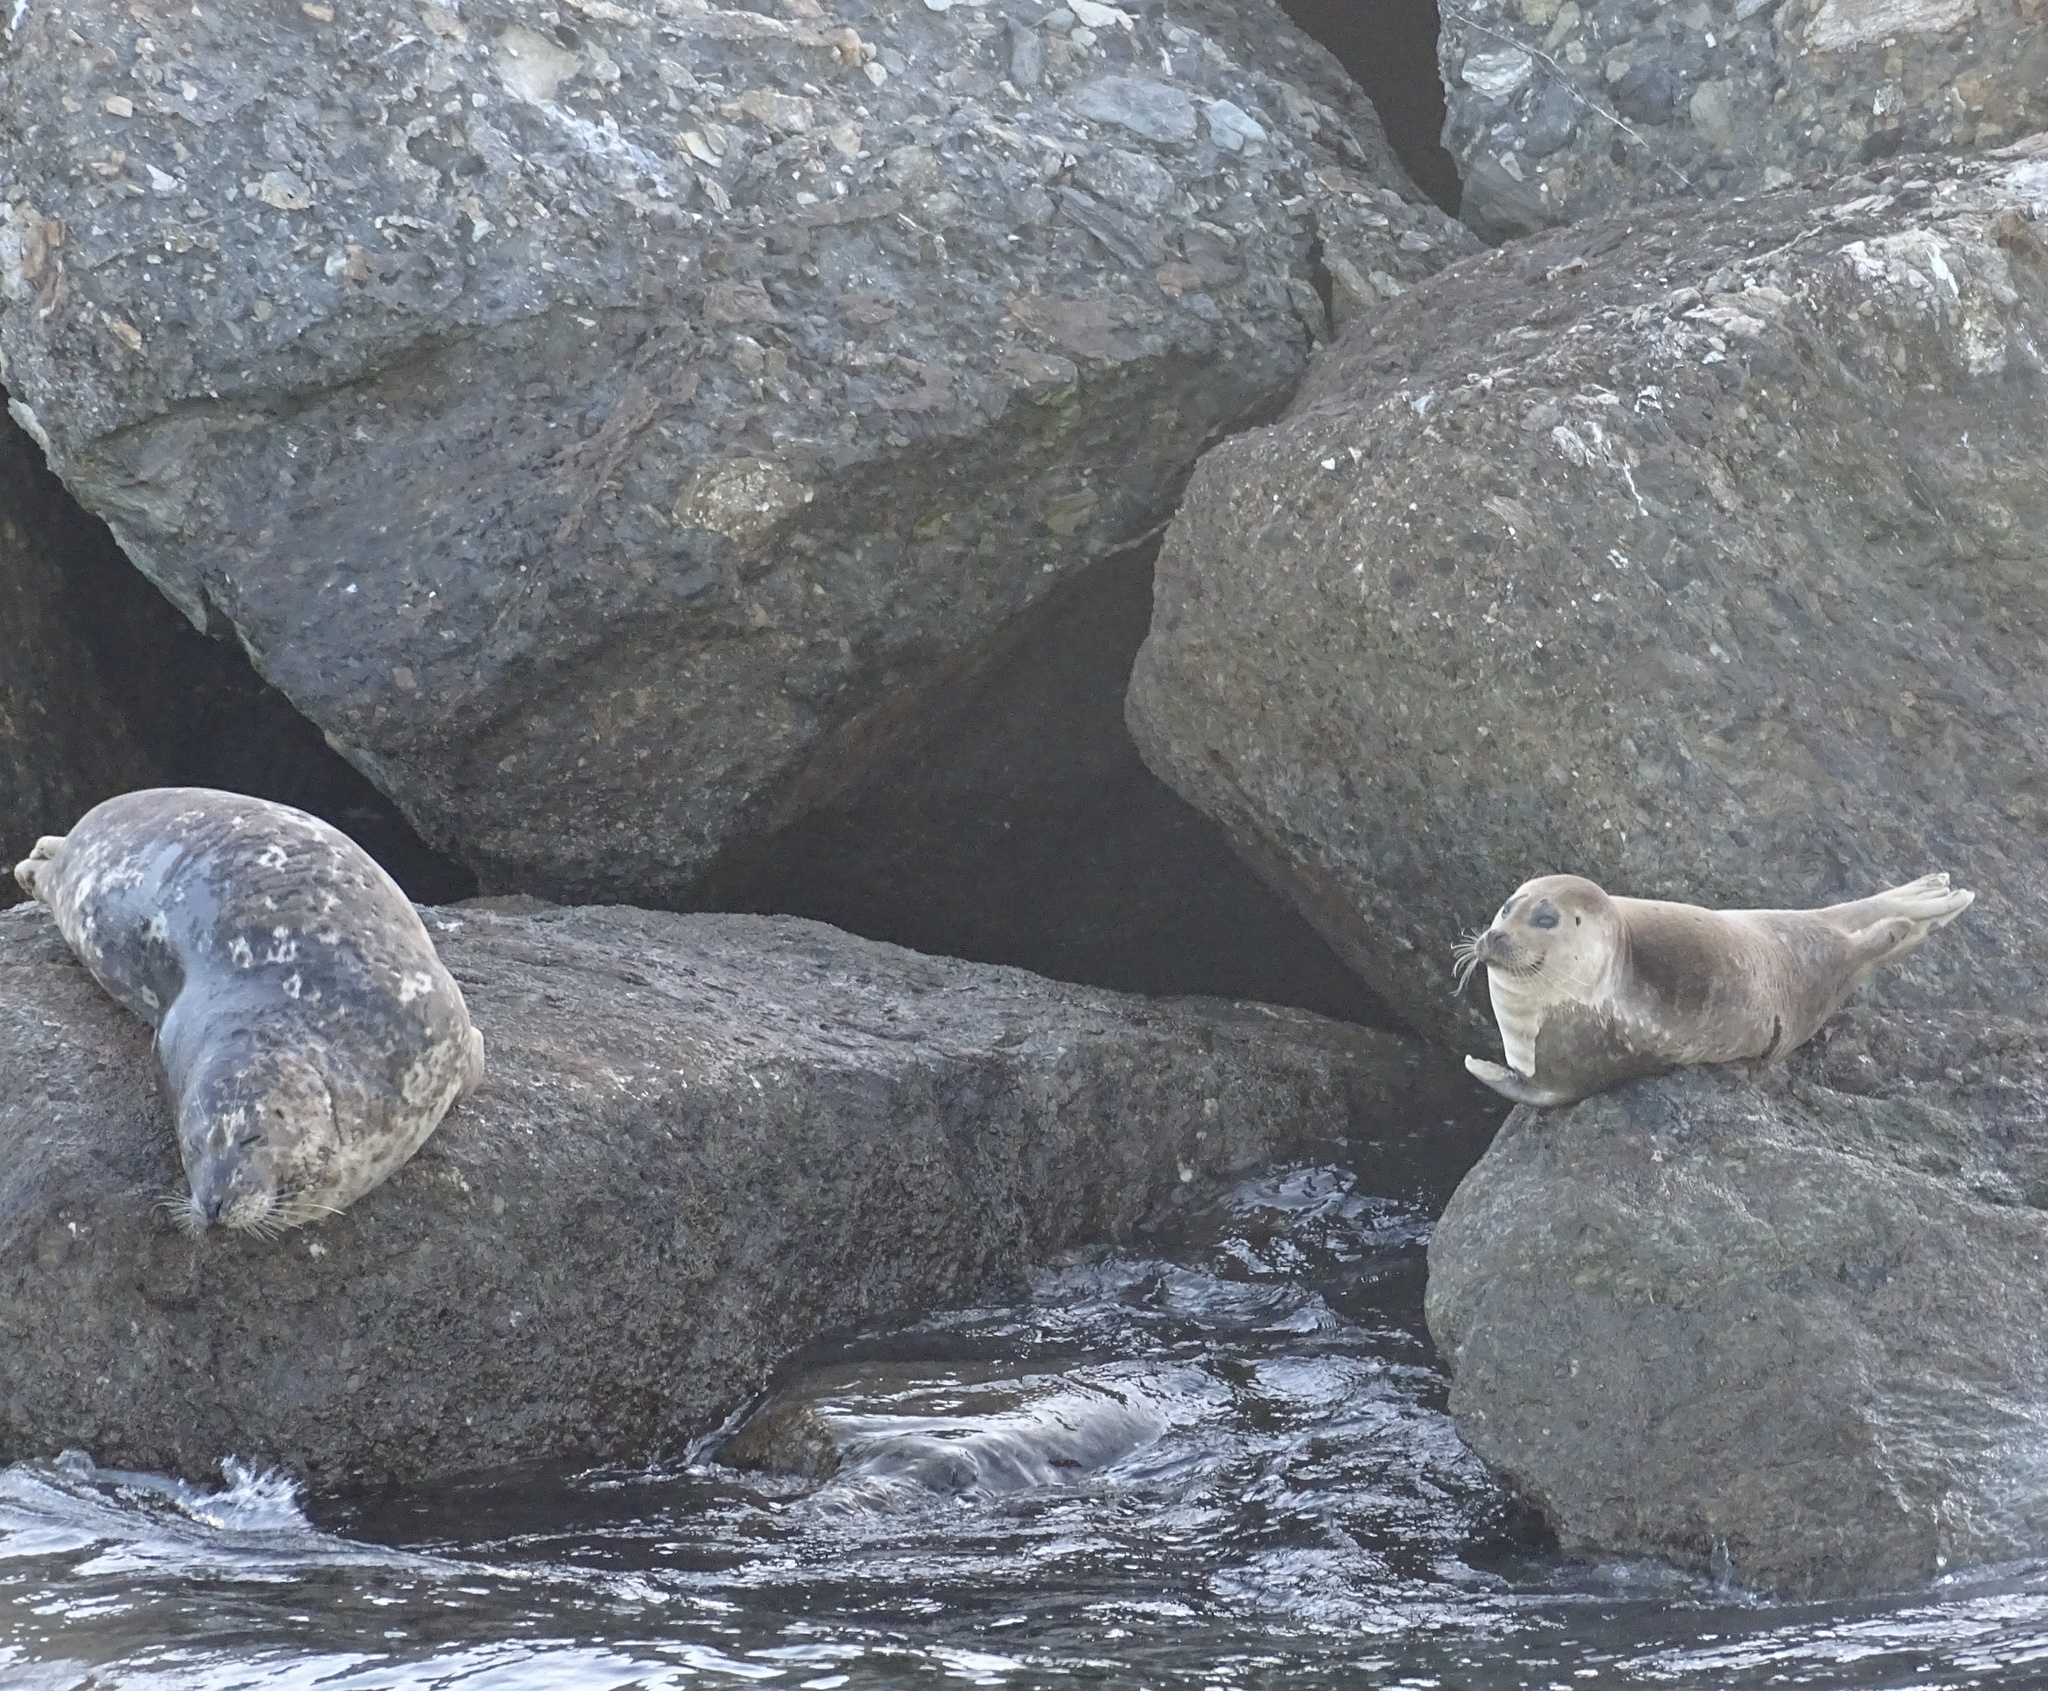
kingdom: Animalia
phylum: Chordata
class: Mammalia
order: Carnivora
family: Phocidae
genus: Phoca
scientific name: Phoca vitulina
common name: Harbor seal
